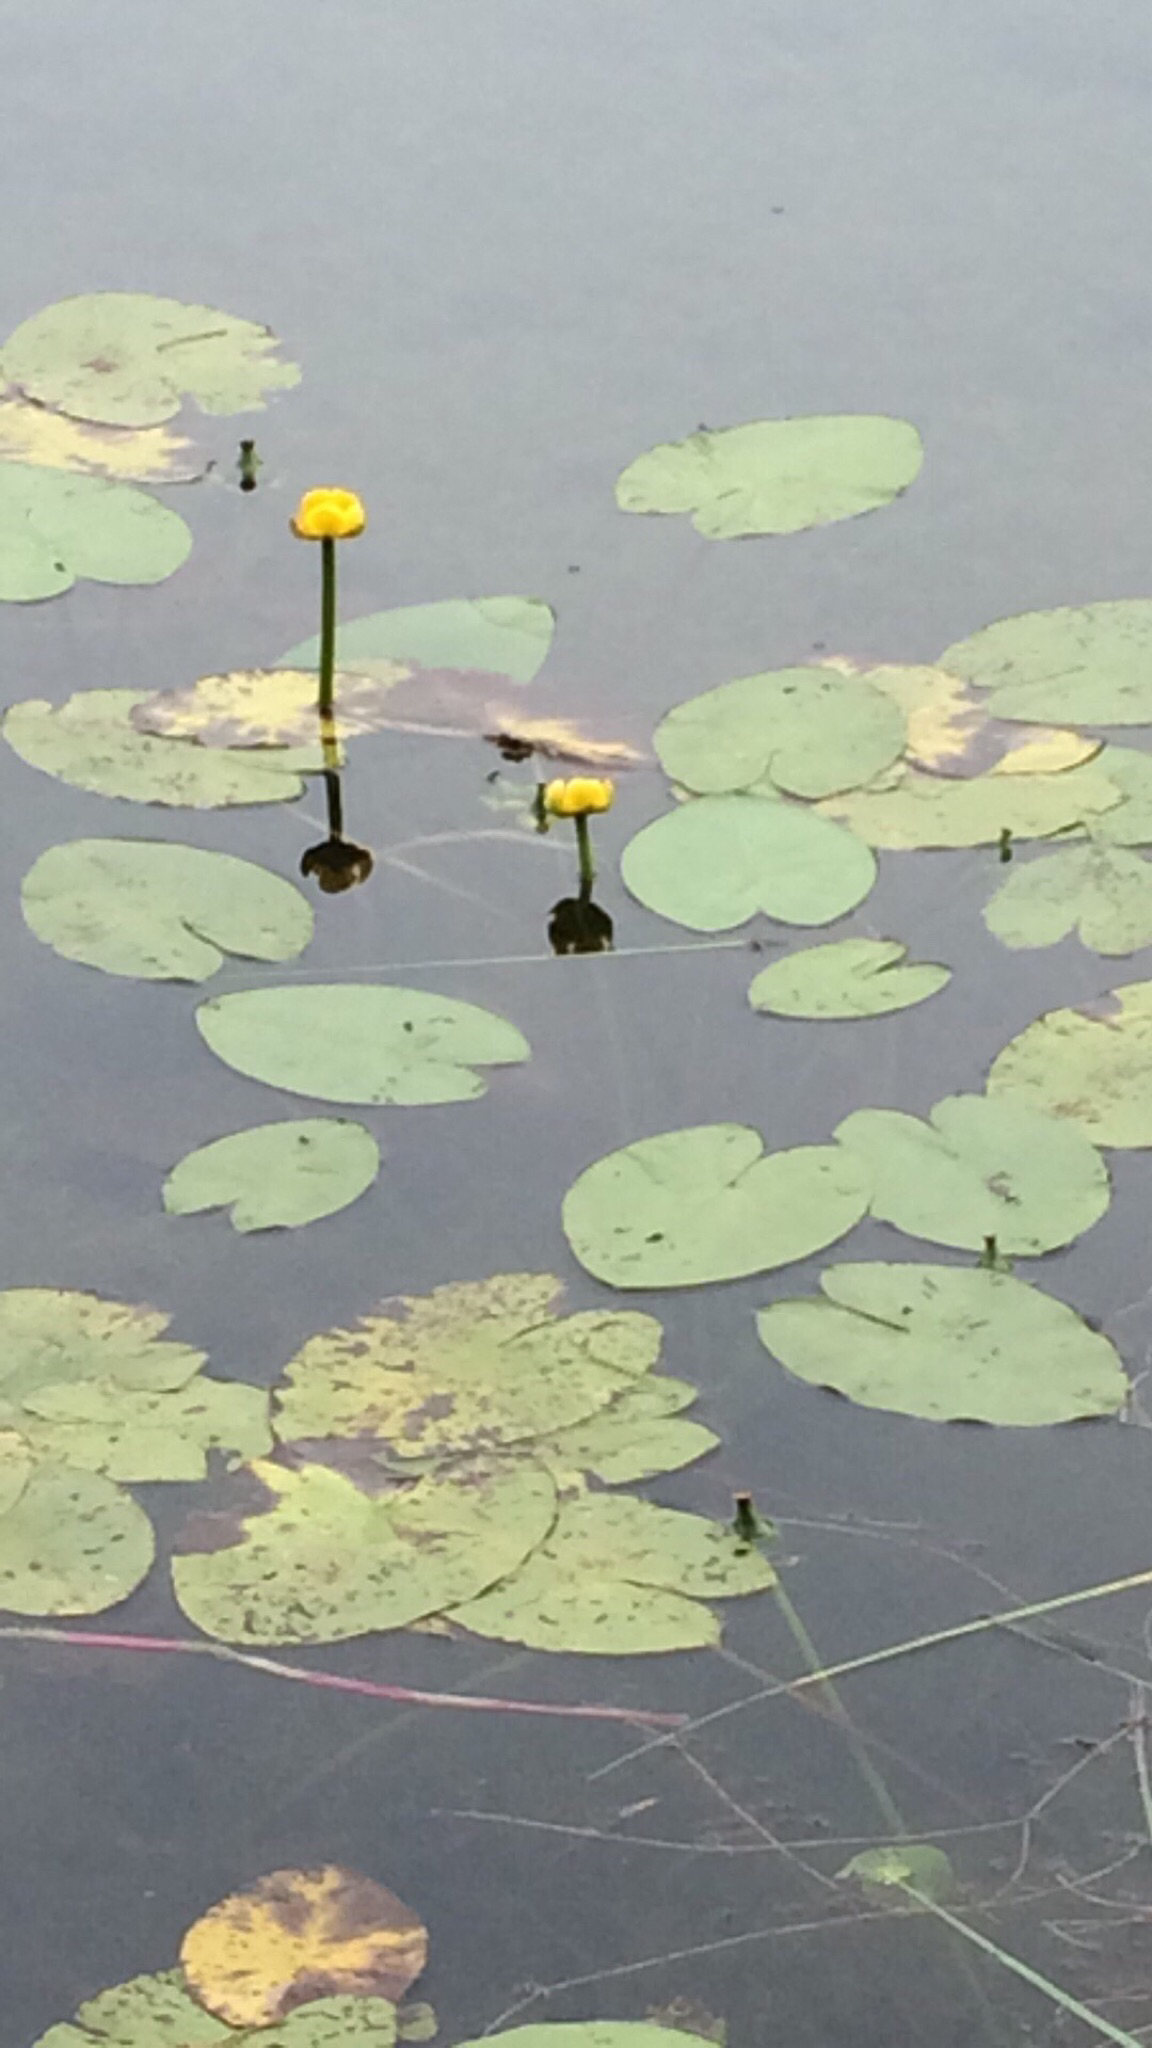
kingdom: Plantae
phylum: Tracheophyta
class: Magnoliopsida
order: Nymphaeales
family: Nymphaeaceae
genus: Nuphar
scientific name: Nuphar lutea
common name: Yellow water-lily
